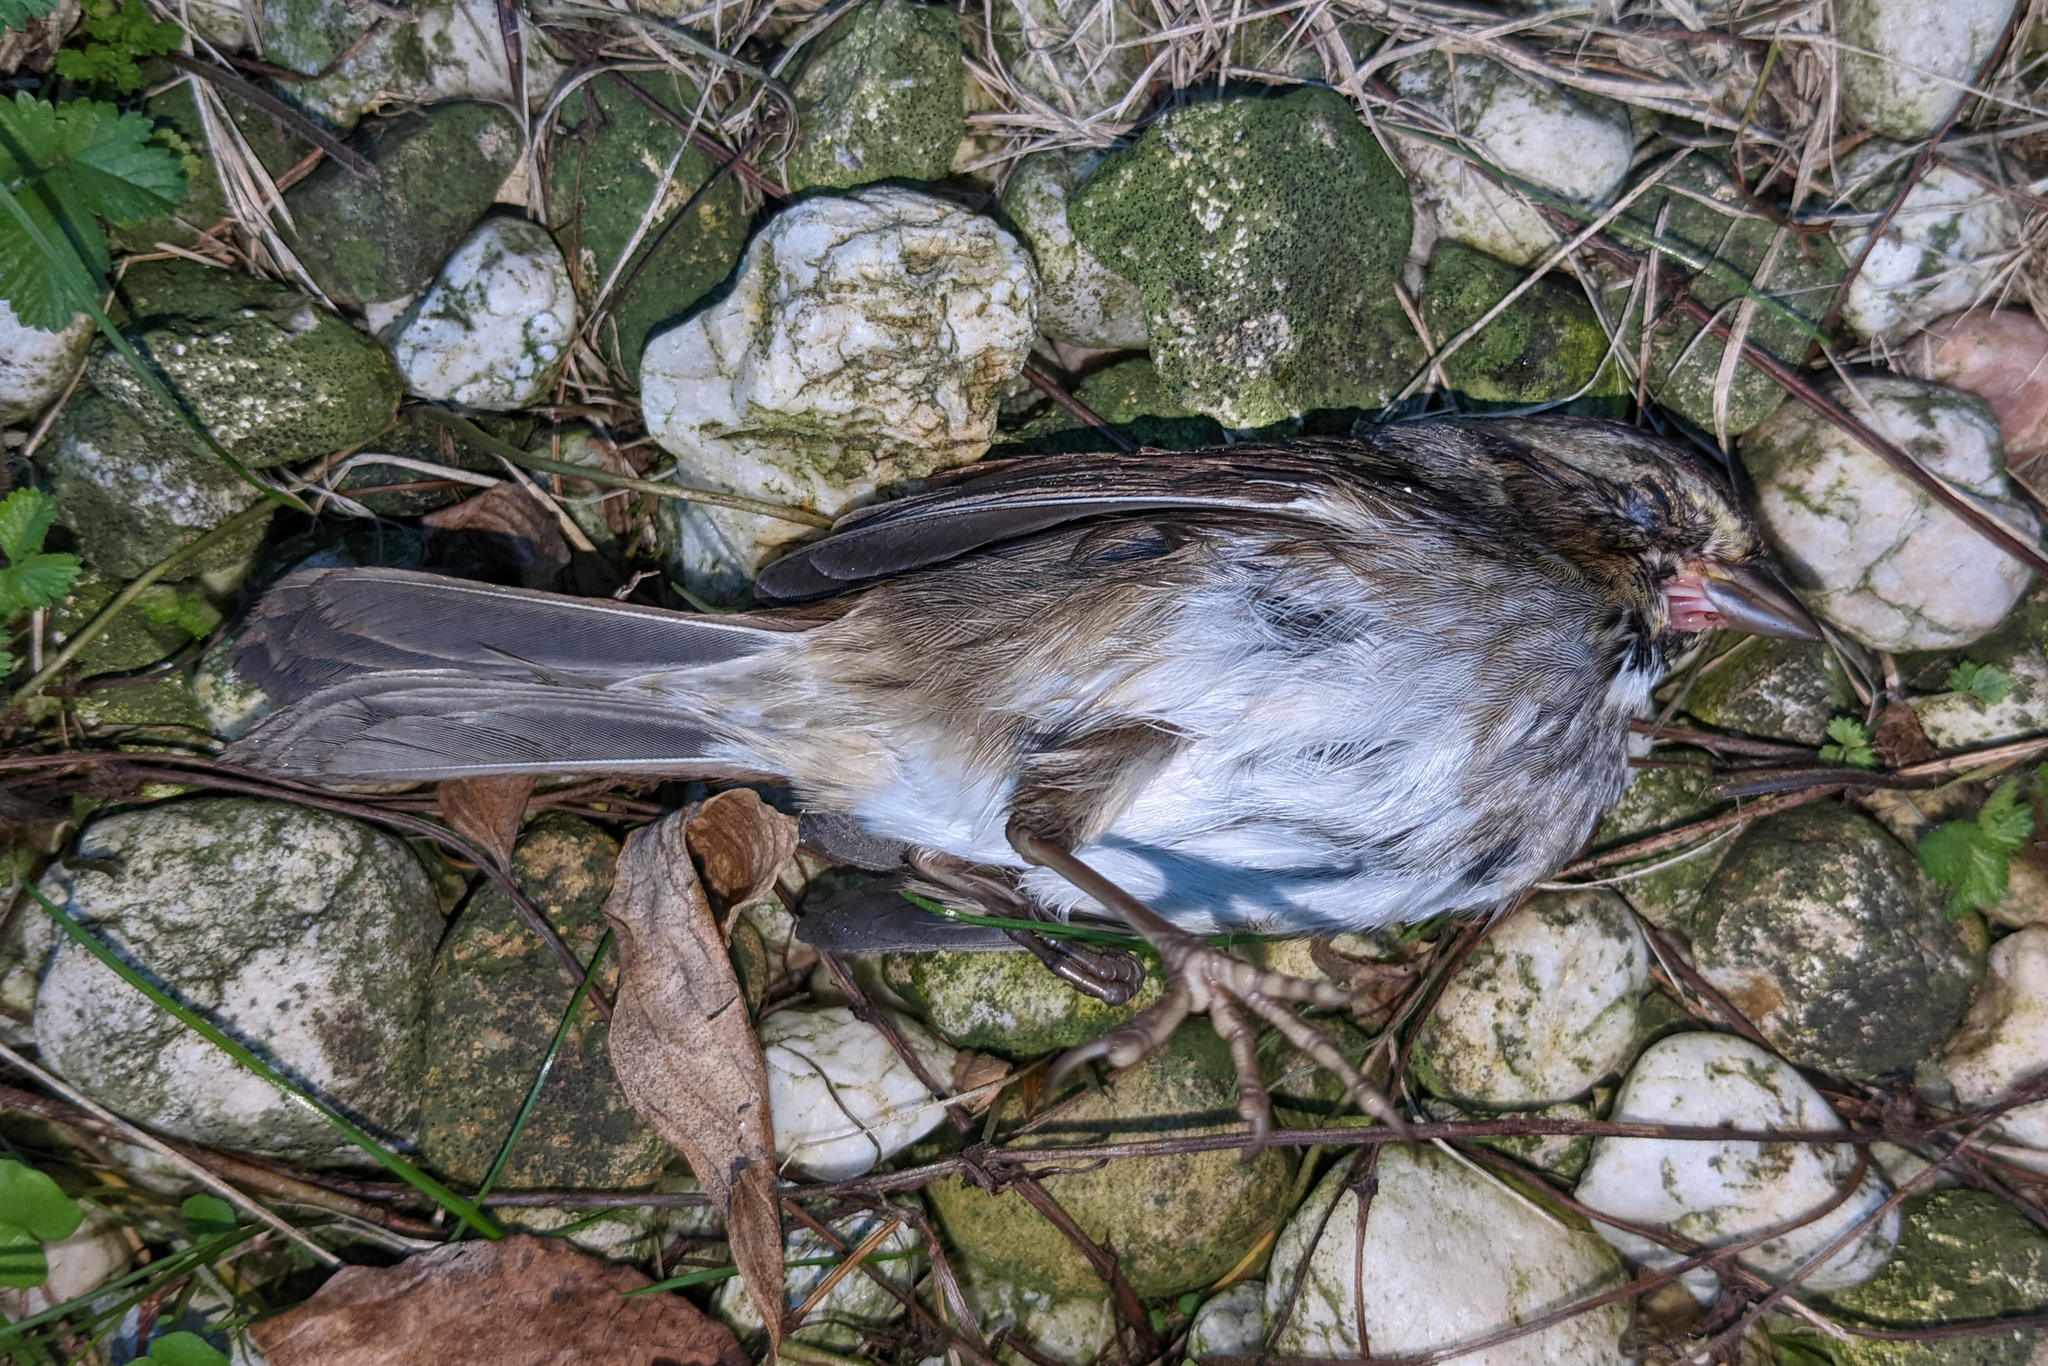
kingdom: Animalia
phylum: Chordata
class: Aves
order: Passeriformes
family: Passerellidae
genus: Melospiza
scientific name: Melospiza georgiana
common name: Swamp sparrow
